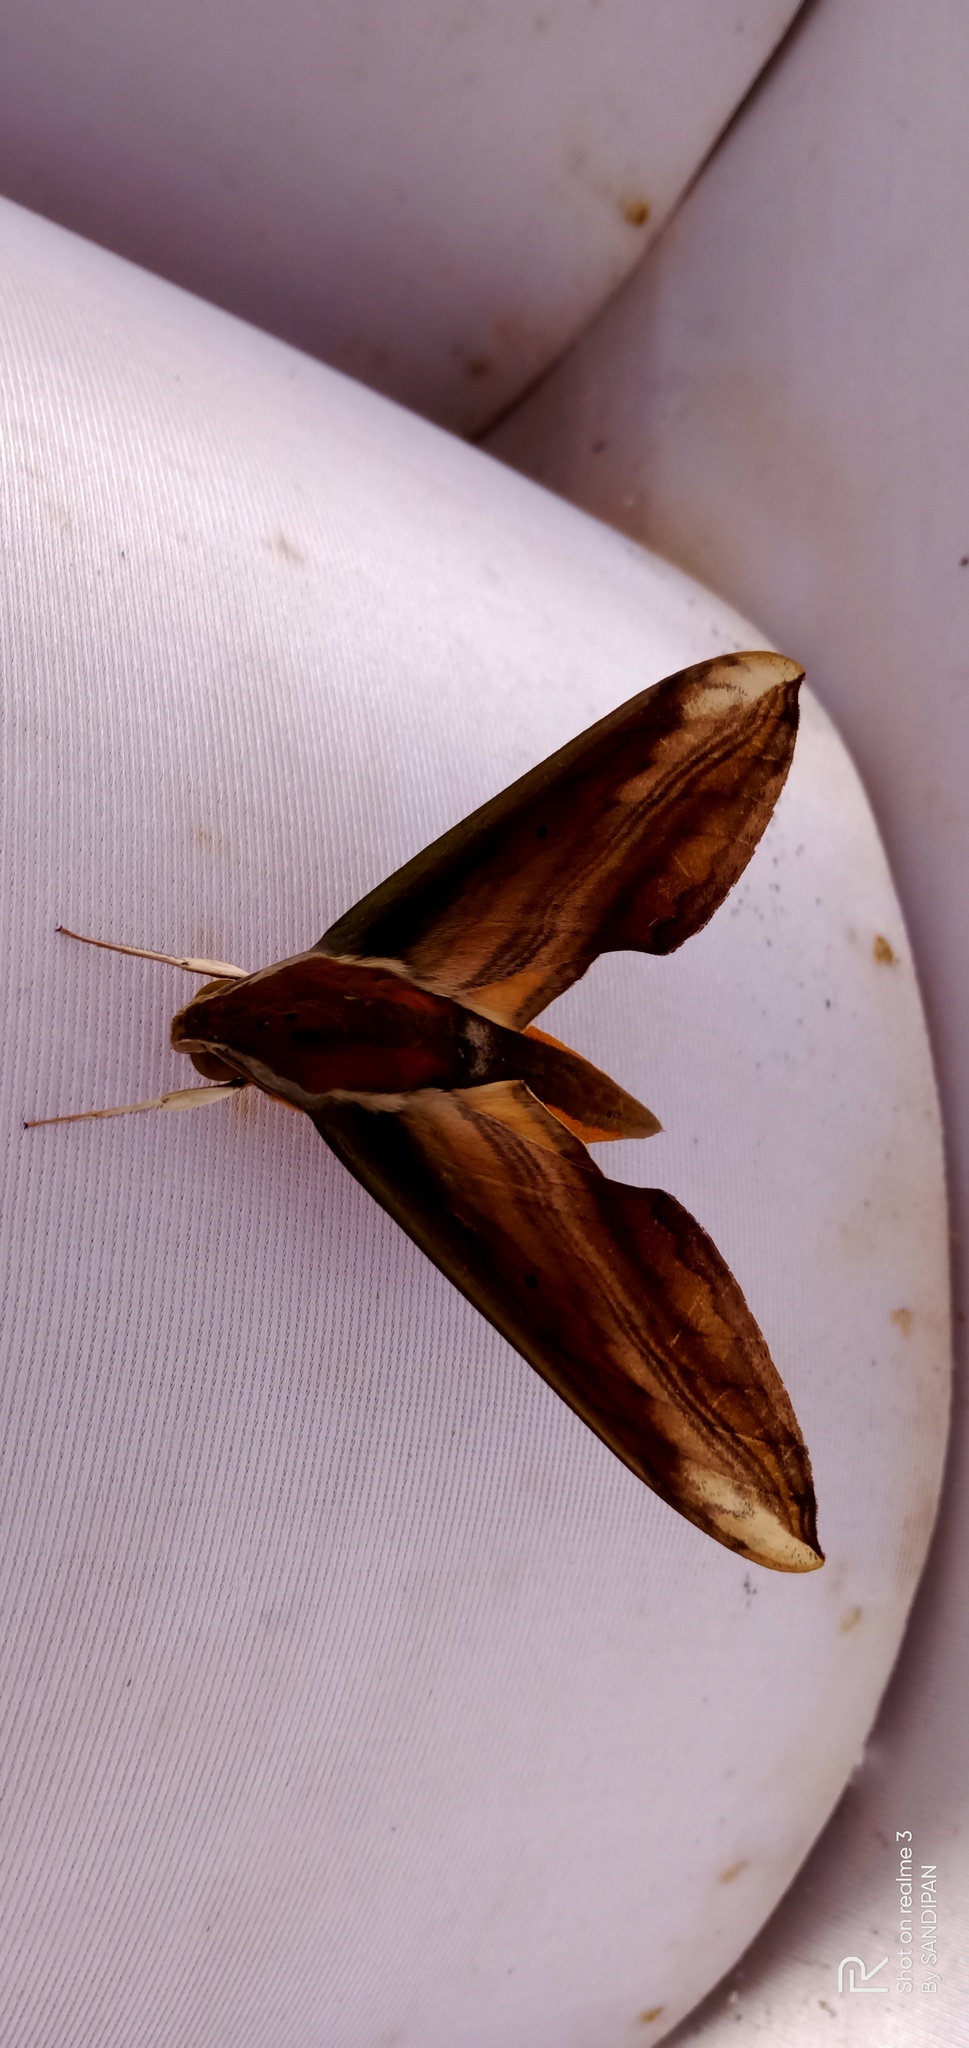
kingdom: Animalia
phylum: Arthropoda
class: Insecta
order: Lepidoptera
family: Sphingidae
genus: Theretra
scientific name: Theretra nessus
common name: Yam hawk moth
